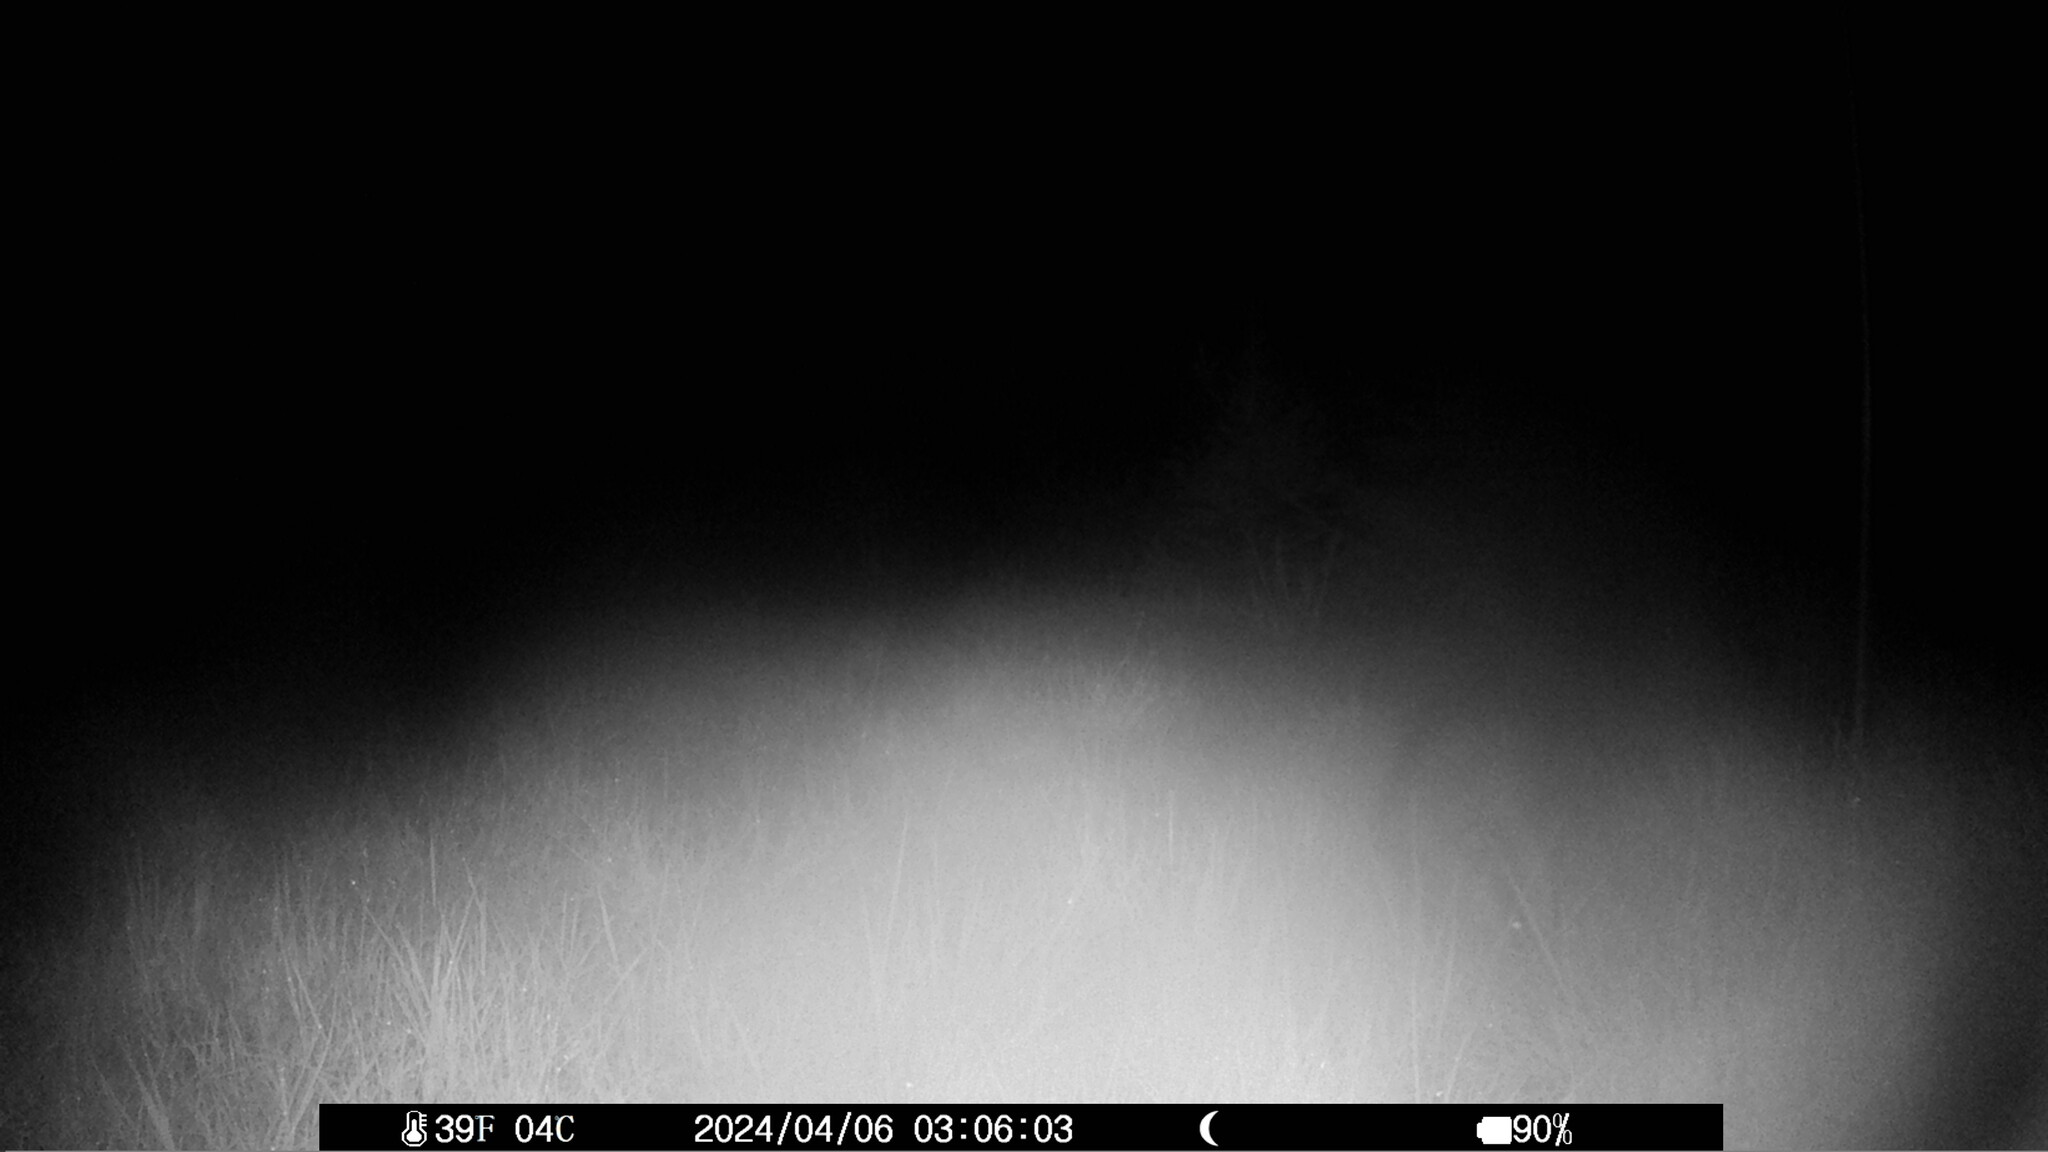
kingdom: Animalia
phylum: Chordata
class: Mammalia
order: Carnivora
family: Mustelidae
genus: Meles
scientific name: Meles meles
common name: Eurasian badger
